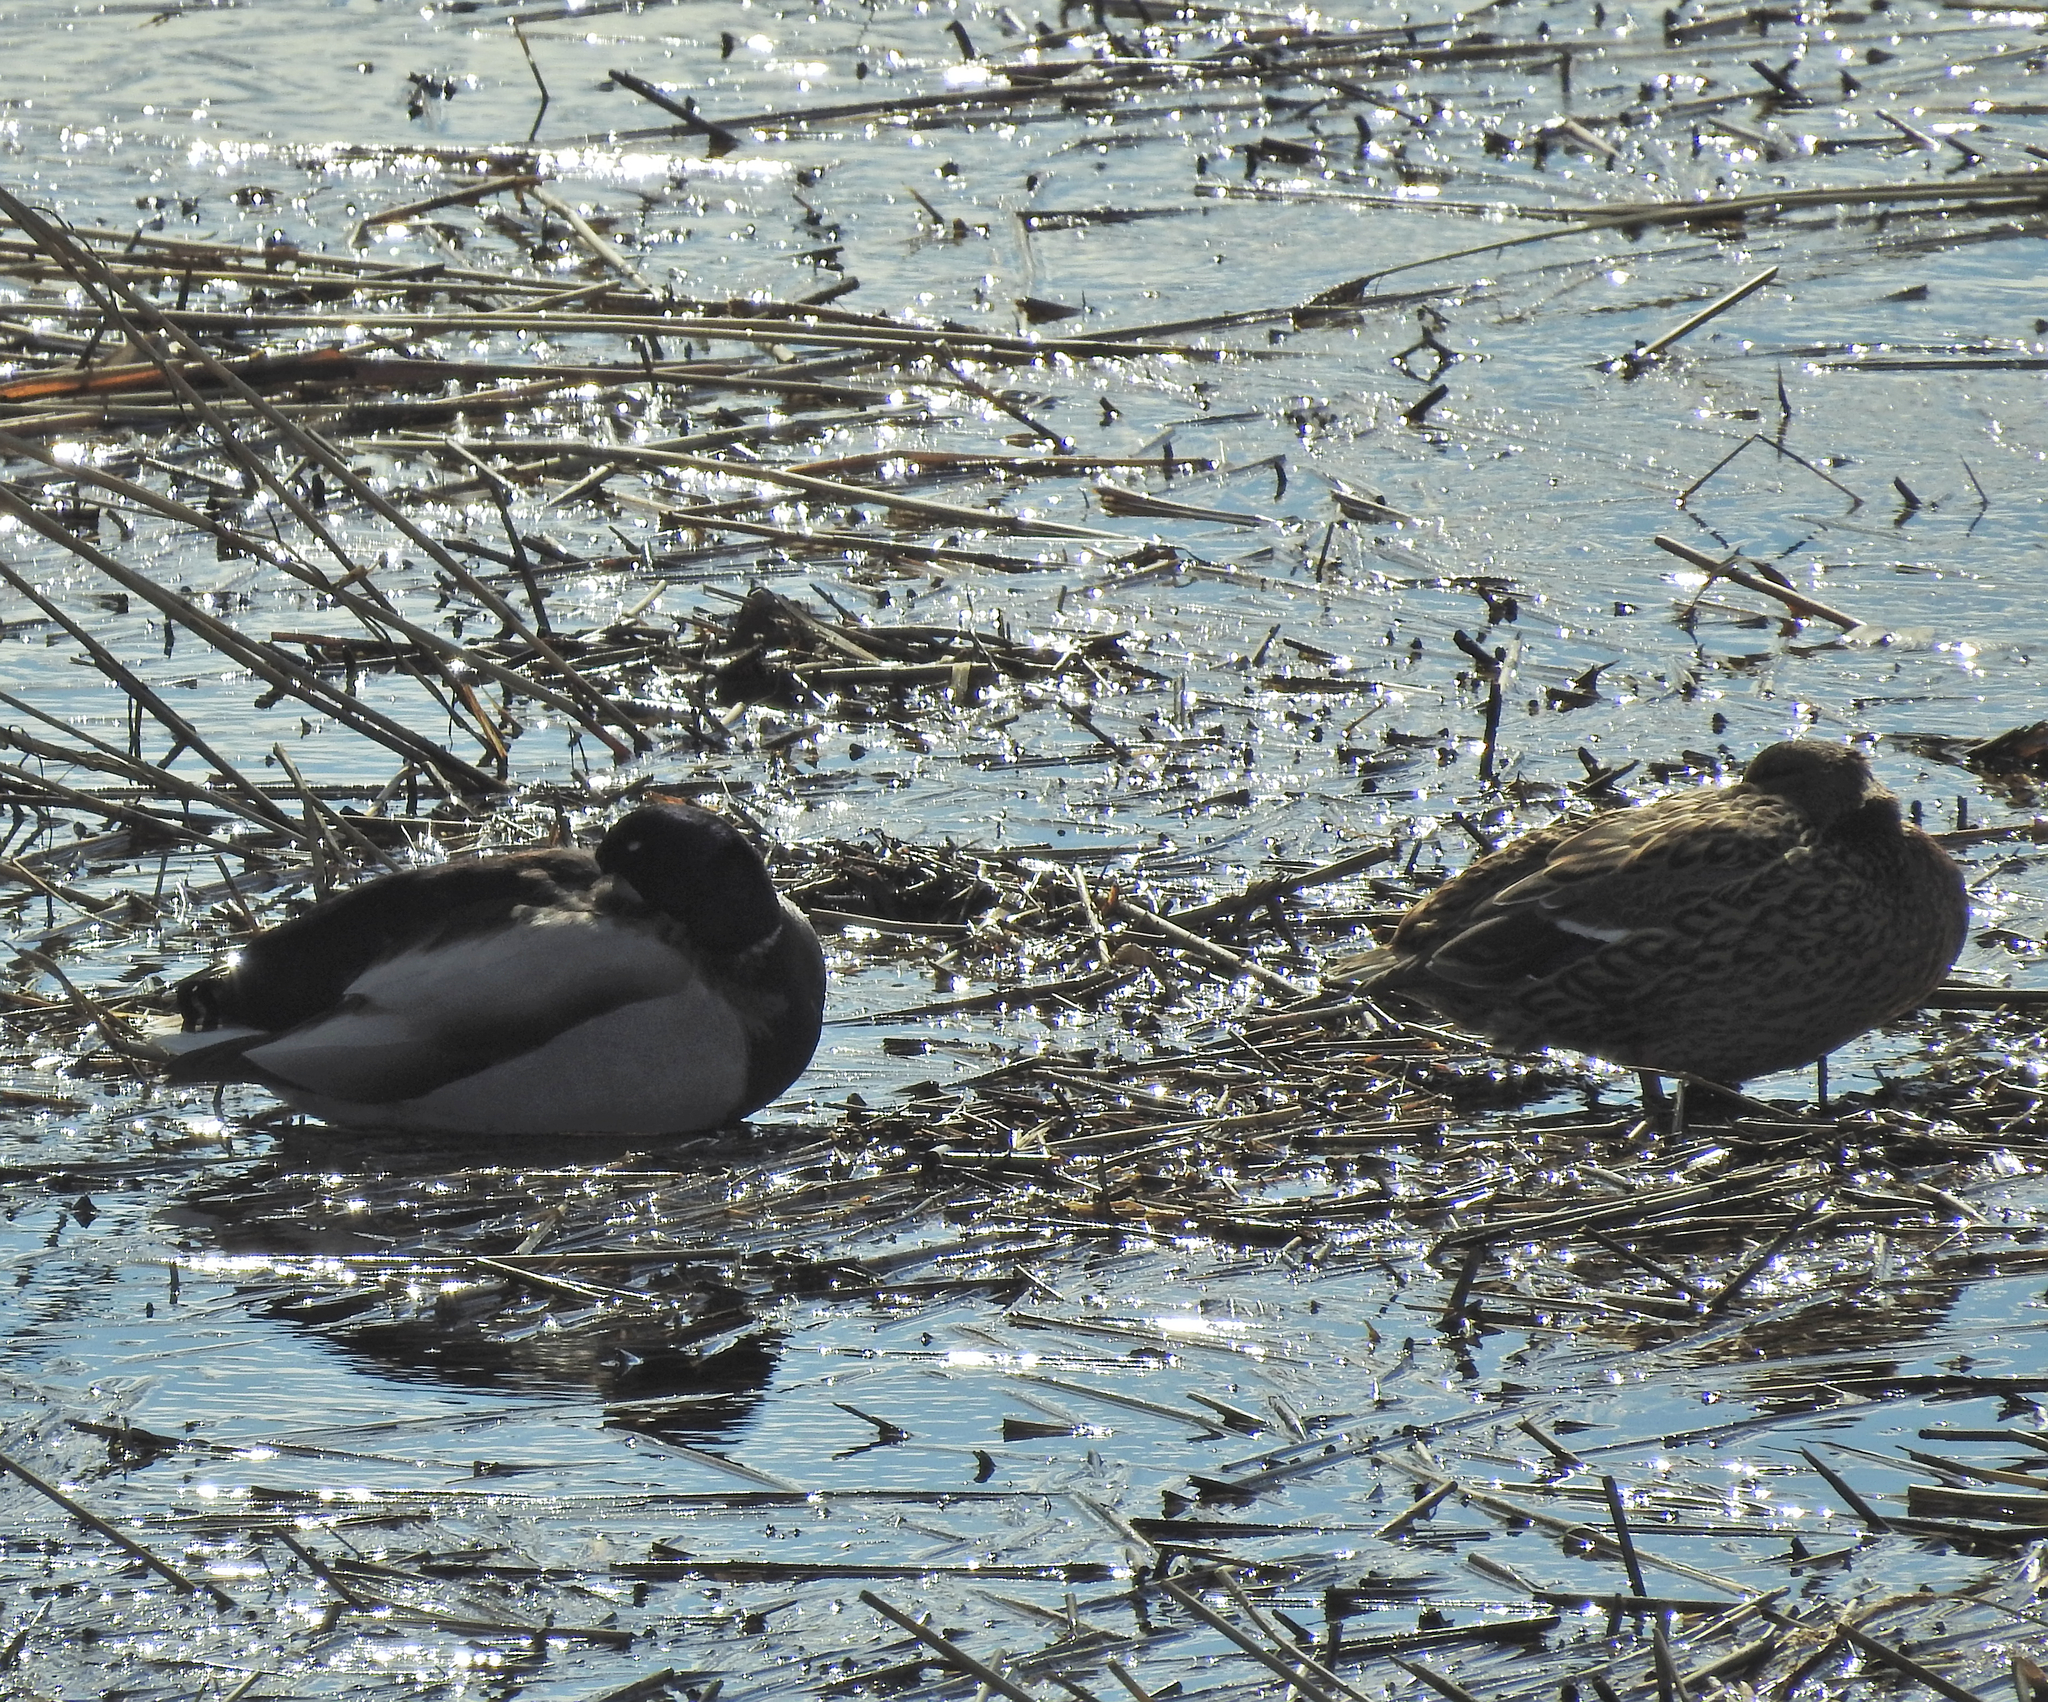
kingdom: Animalia
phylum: Chordata
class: Aves
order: Anseriformes
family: Anatidae
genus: Anas
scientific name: Anas platyrhynchos
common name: Mallard
